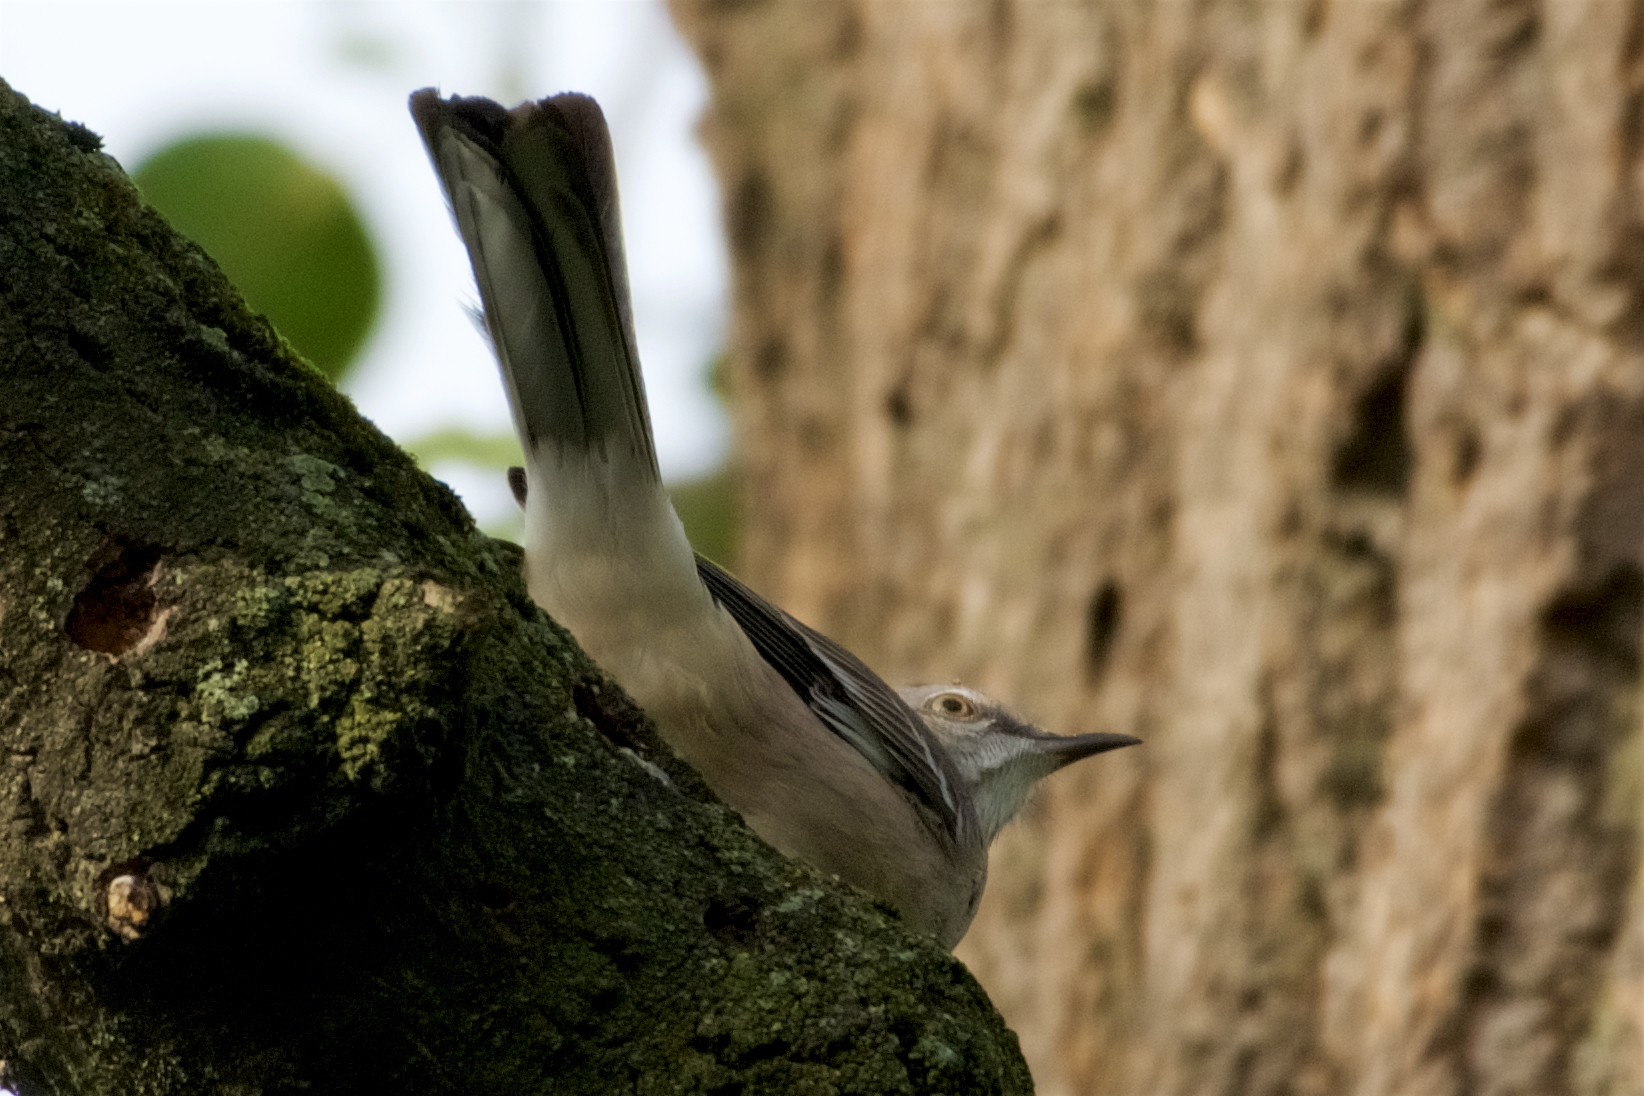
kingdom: Animalia
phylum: Chordata
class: Aves
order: Passeriformes
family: Mimidae
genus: Mimus
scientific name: Mimus polyglottos
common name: Northern mockingbird
